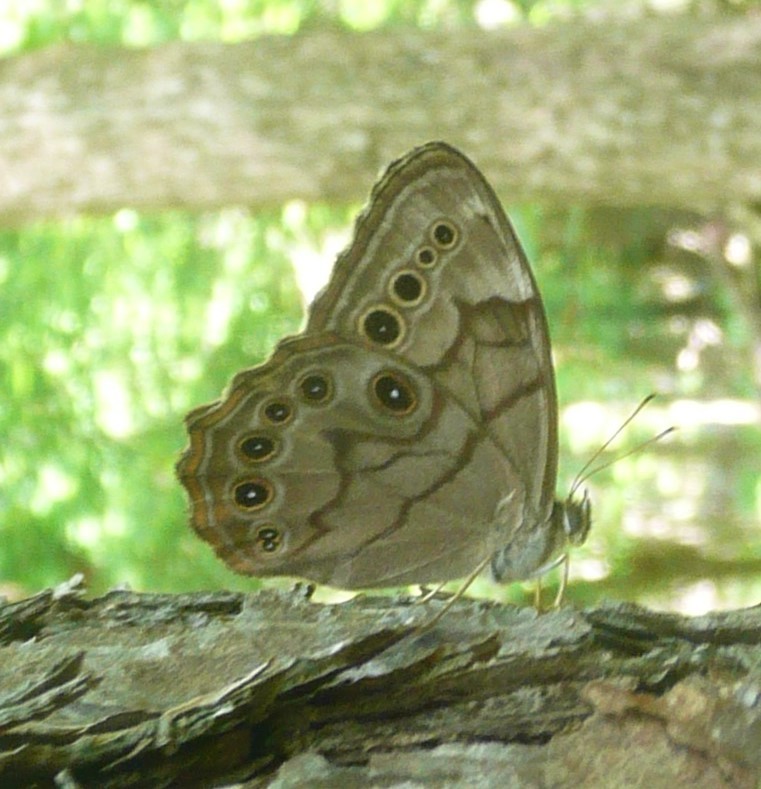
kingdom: Animalia
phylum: Arthropoda
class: Insecta
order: Lepidoptera
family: Nymphalidae
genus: Lethe
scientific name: Lethe anthedon
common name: Northern pearly-eye
